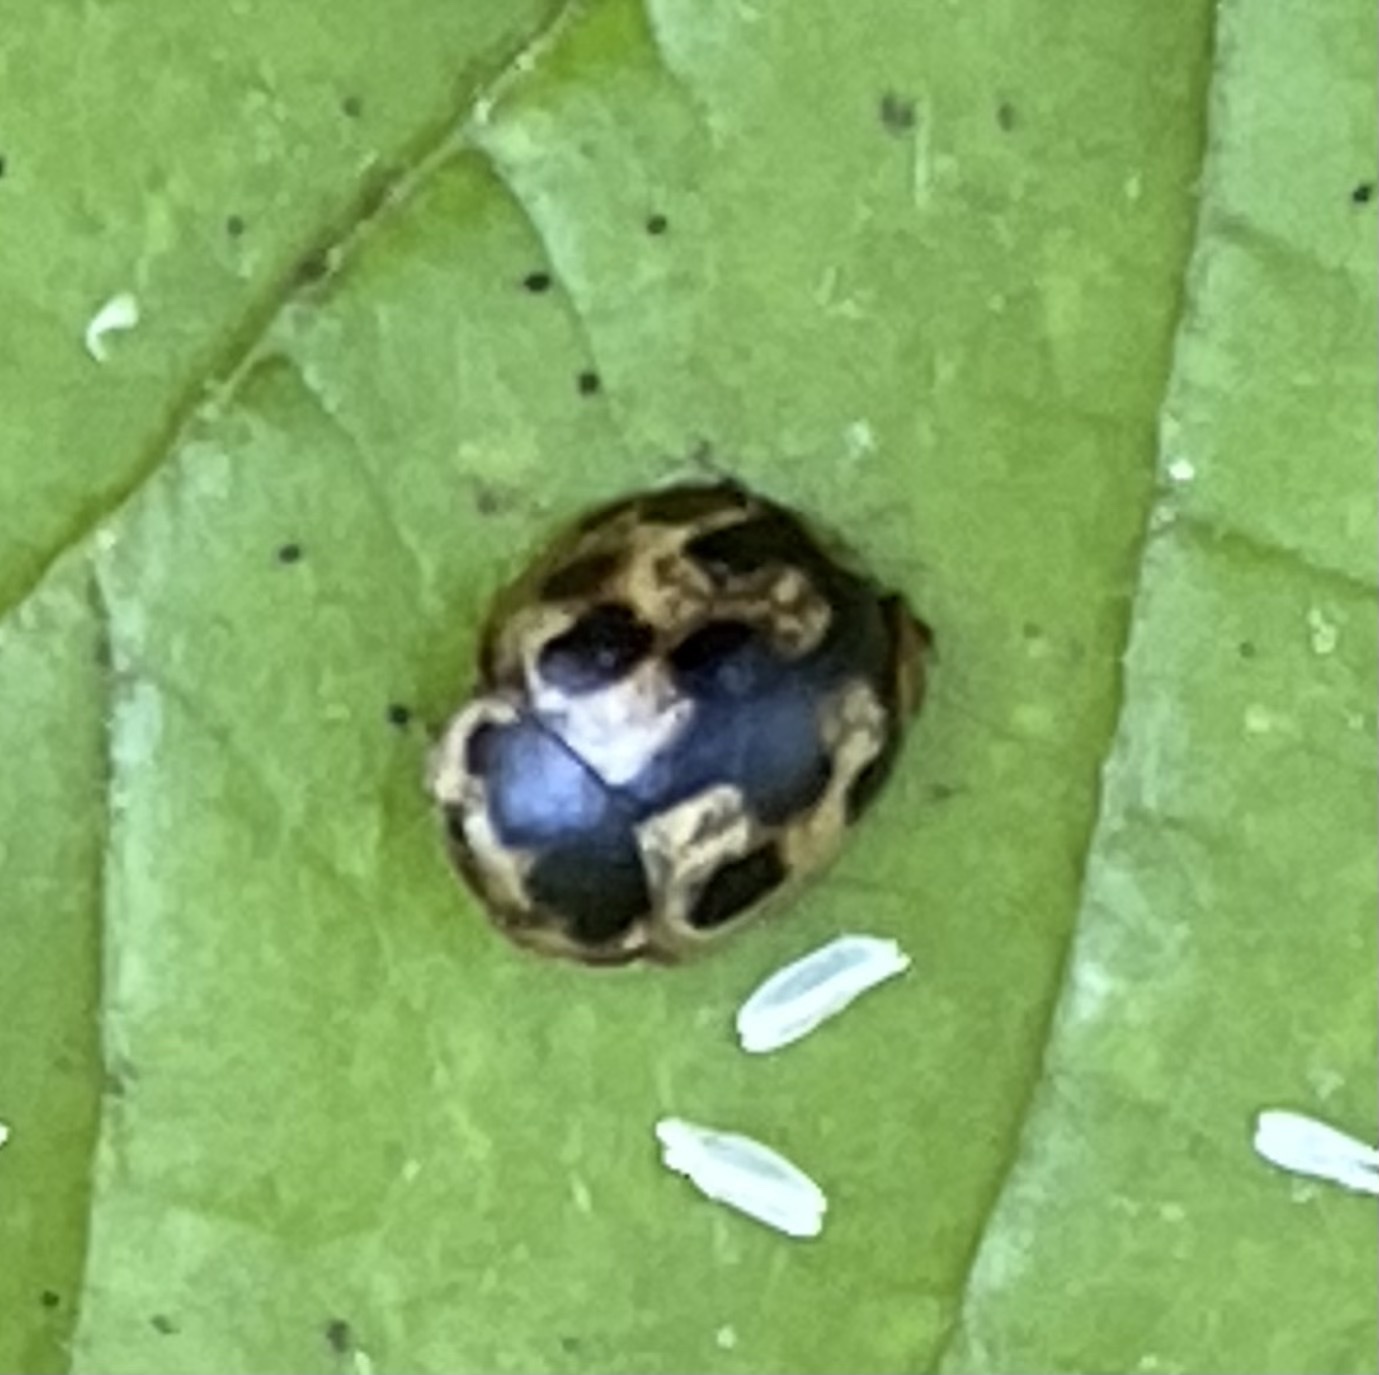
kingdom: Animalia
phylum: Arthropoda
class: Insecta
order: Coleoptera
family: Coccinellidae
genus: Propylaea
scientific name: Propylaea quatuordecimpunctata
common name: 14-spotted ladybird beetle
